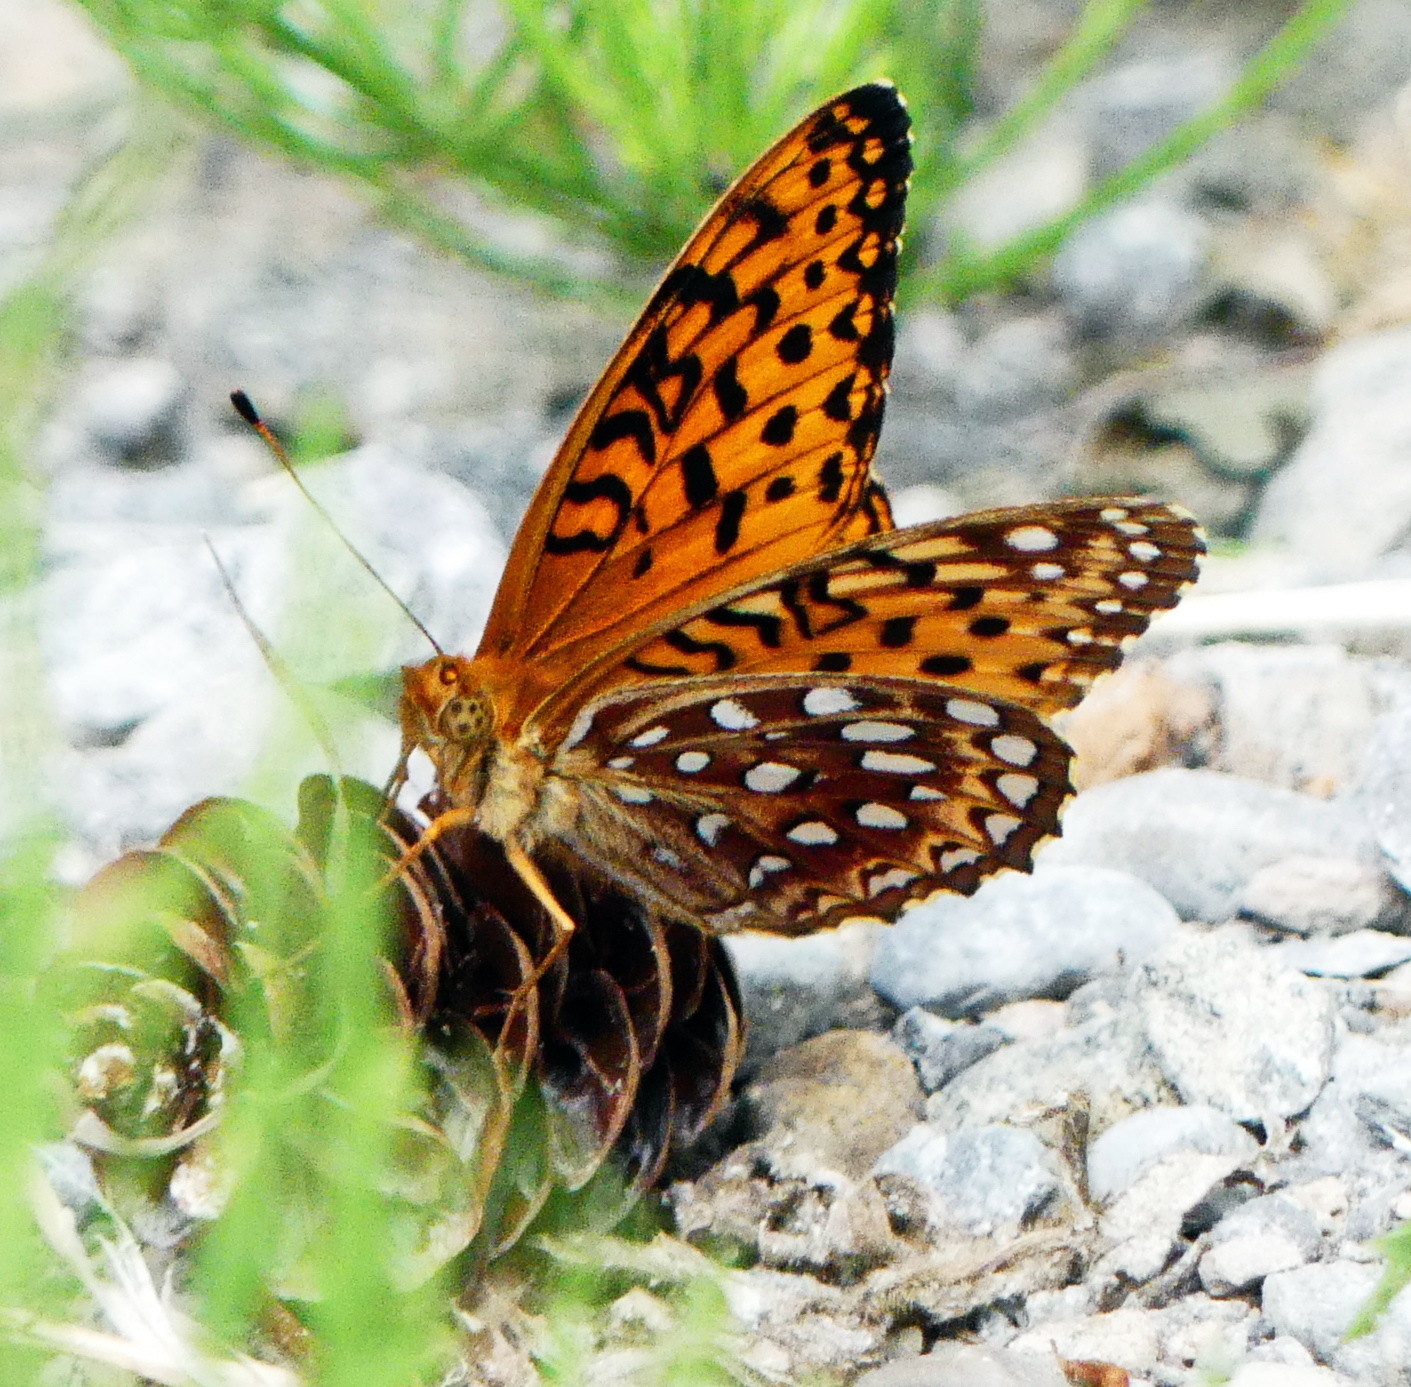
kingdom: Animalia
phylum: Arthropoda
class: Insecta
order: Lepidoptera
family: Nymphalidae
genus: Speyeria
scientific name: Speyeria aphrodite
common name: Aphrodite friitllary
